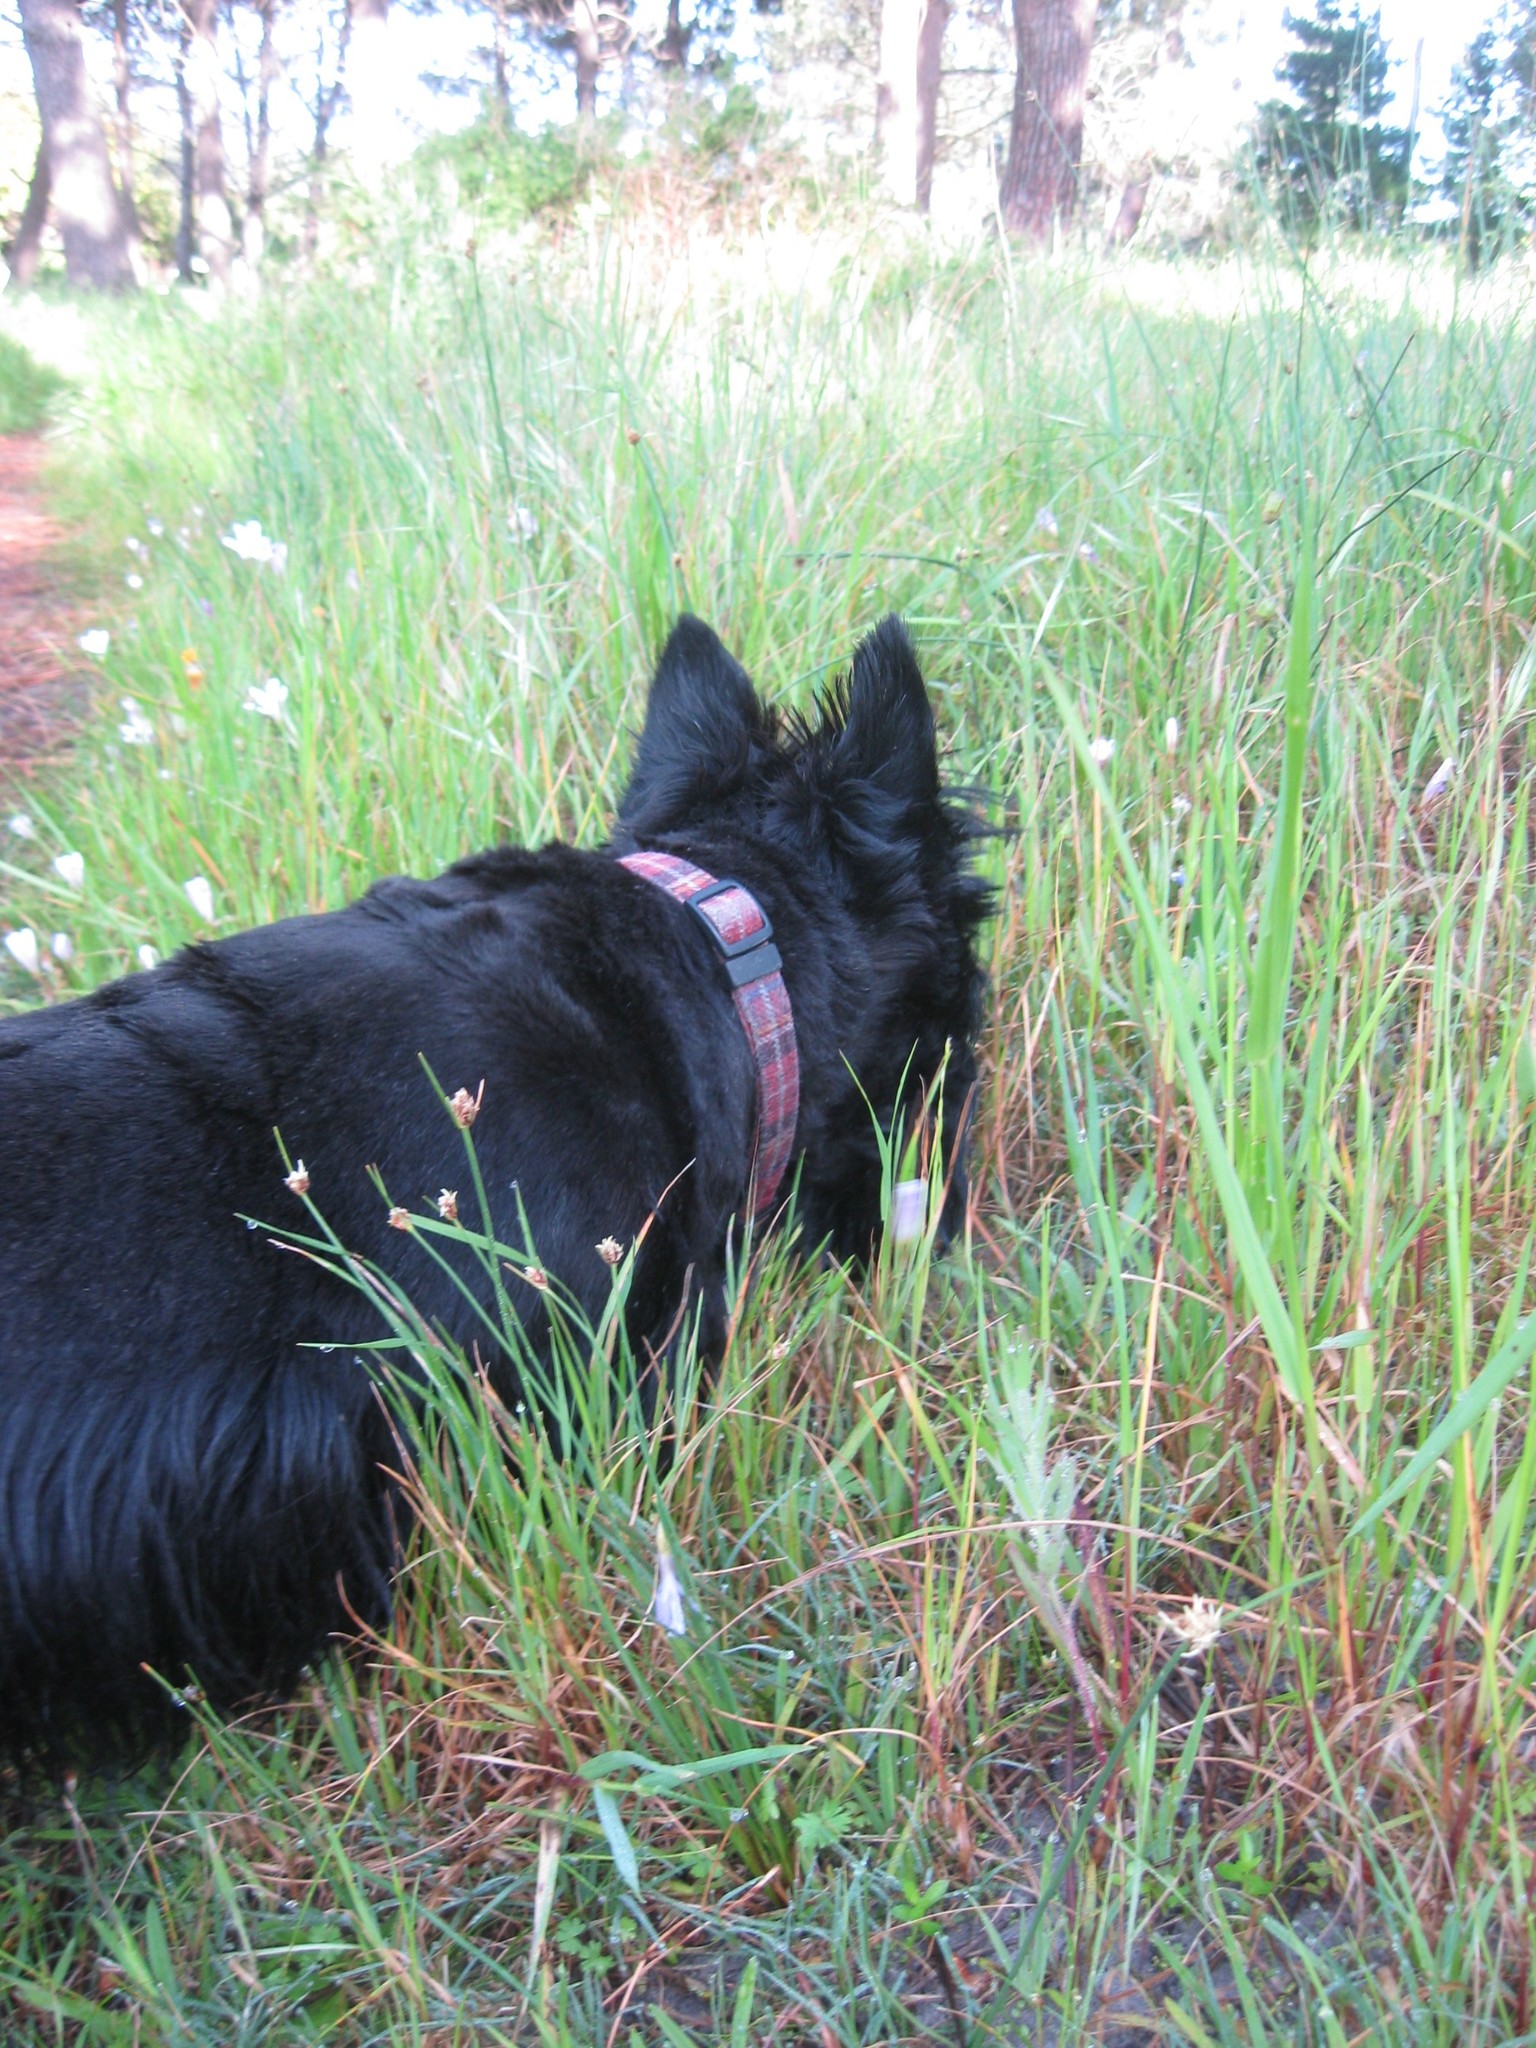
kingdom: Plantae
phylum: Tracheophyta
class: Liliopsida
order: Poales
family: Cyperaceae
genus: Ficinia
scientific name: Ficinia indica
